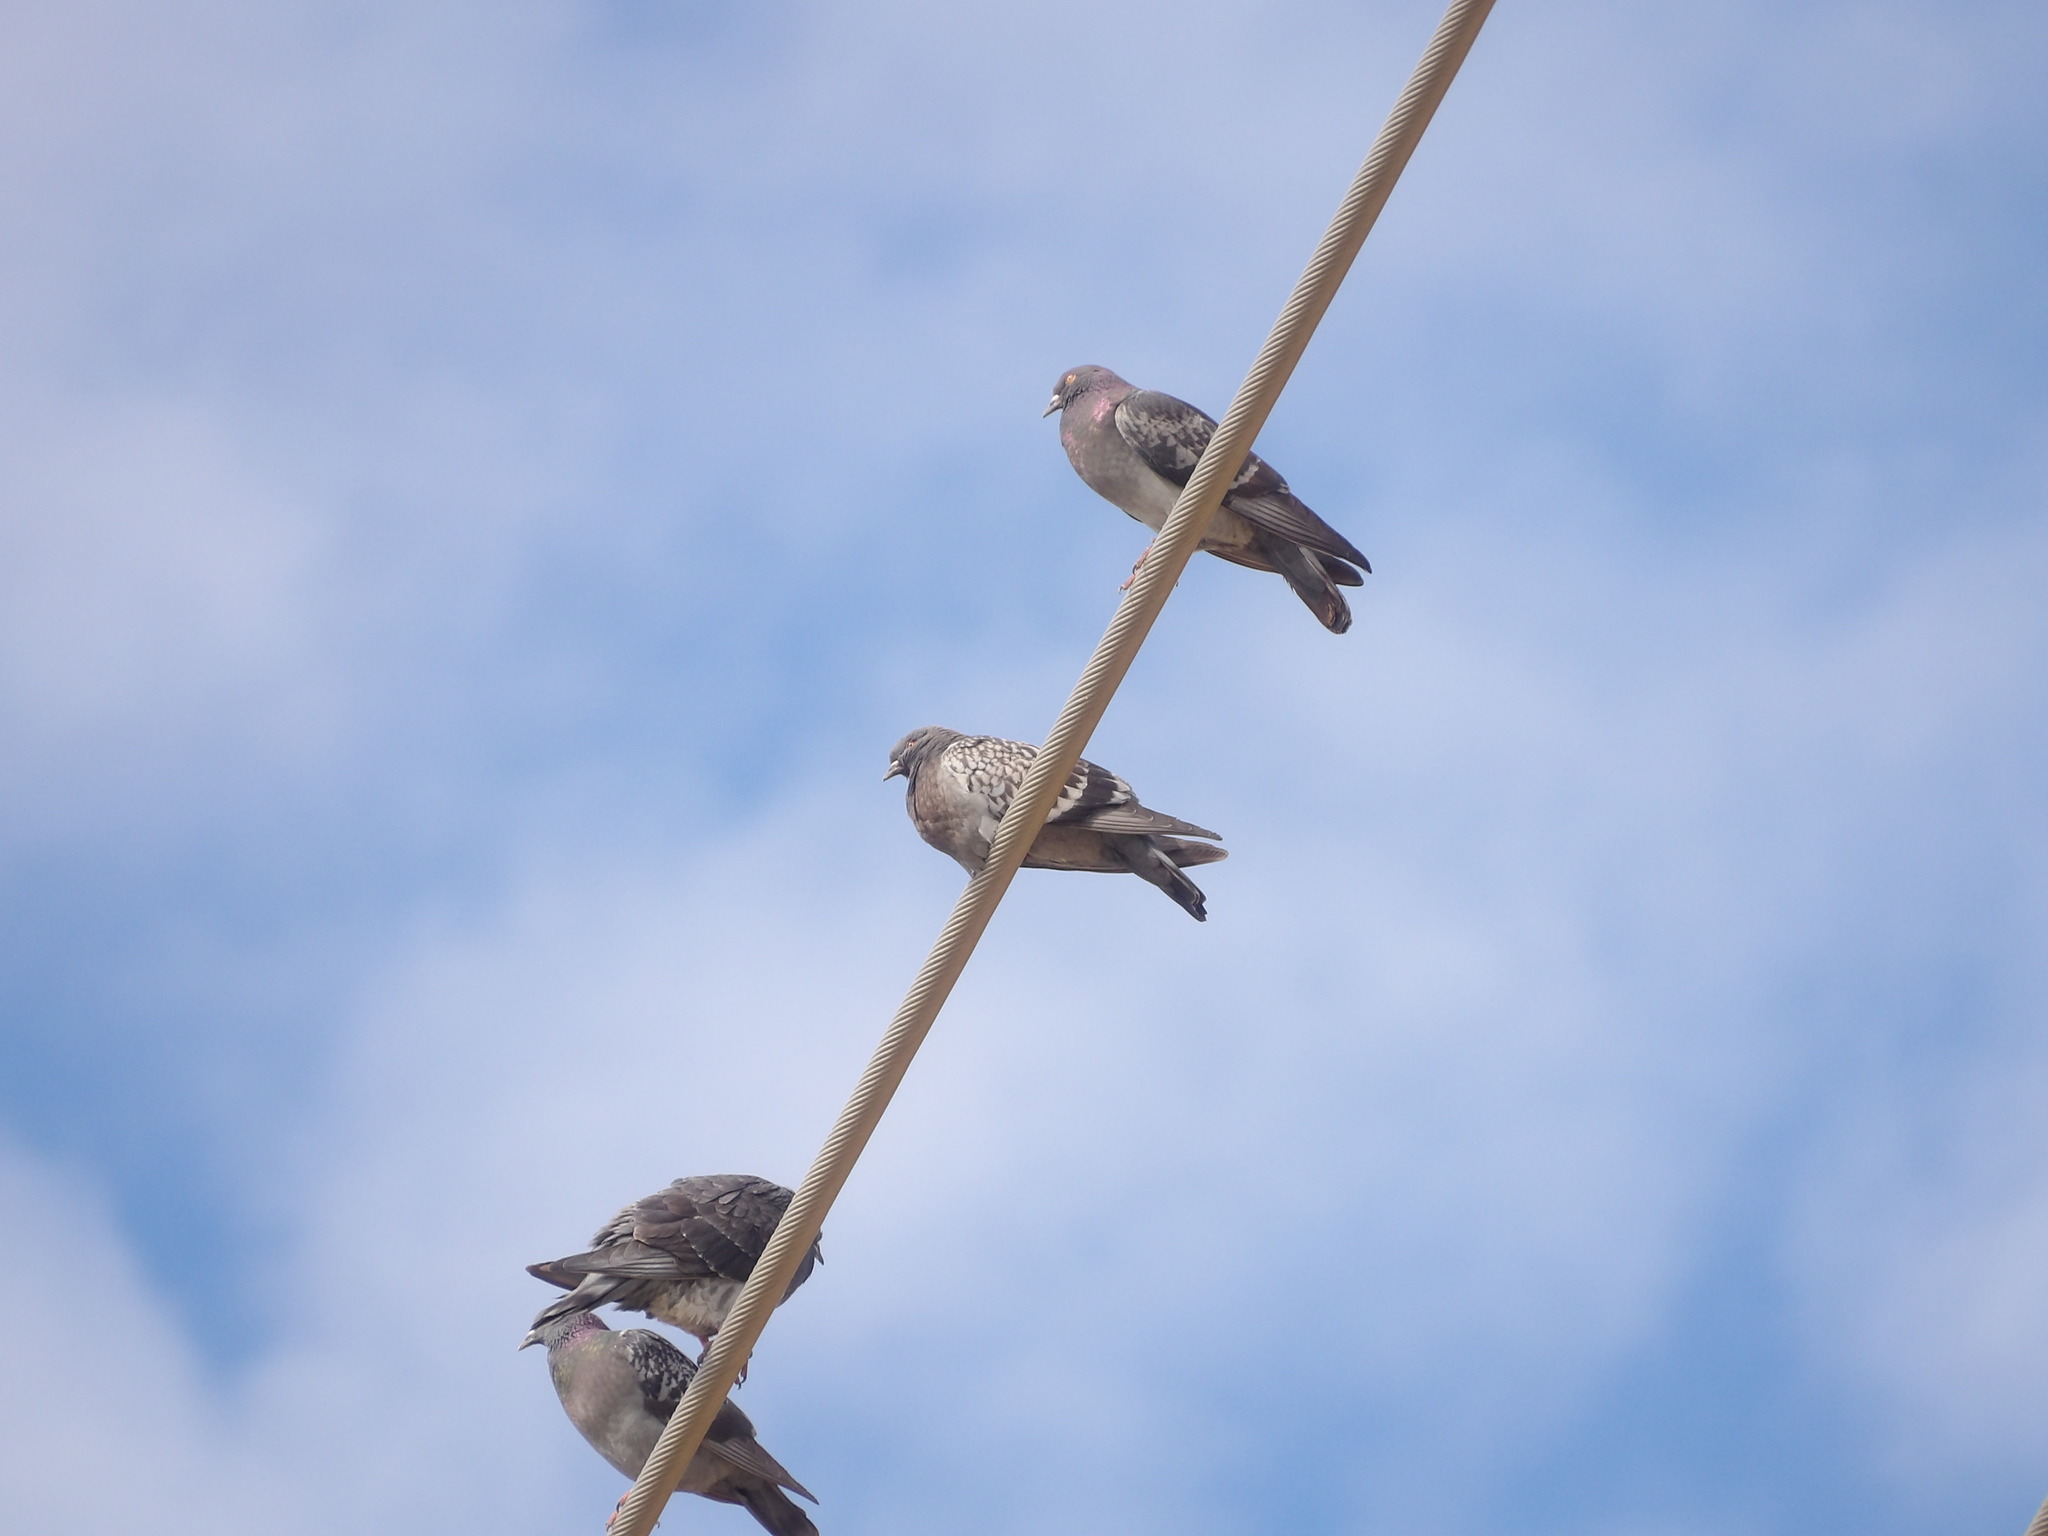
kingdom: Animalia
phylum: Chordata
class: Aves
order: Columbiformes
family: Columbidae
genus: Columba
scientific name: Columba livia
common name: Rock pigeon
